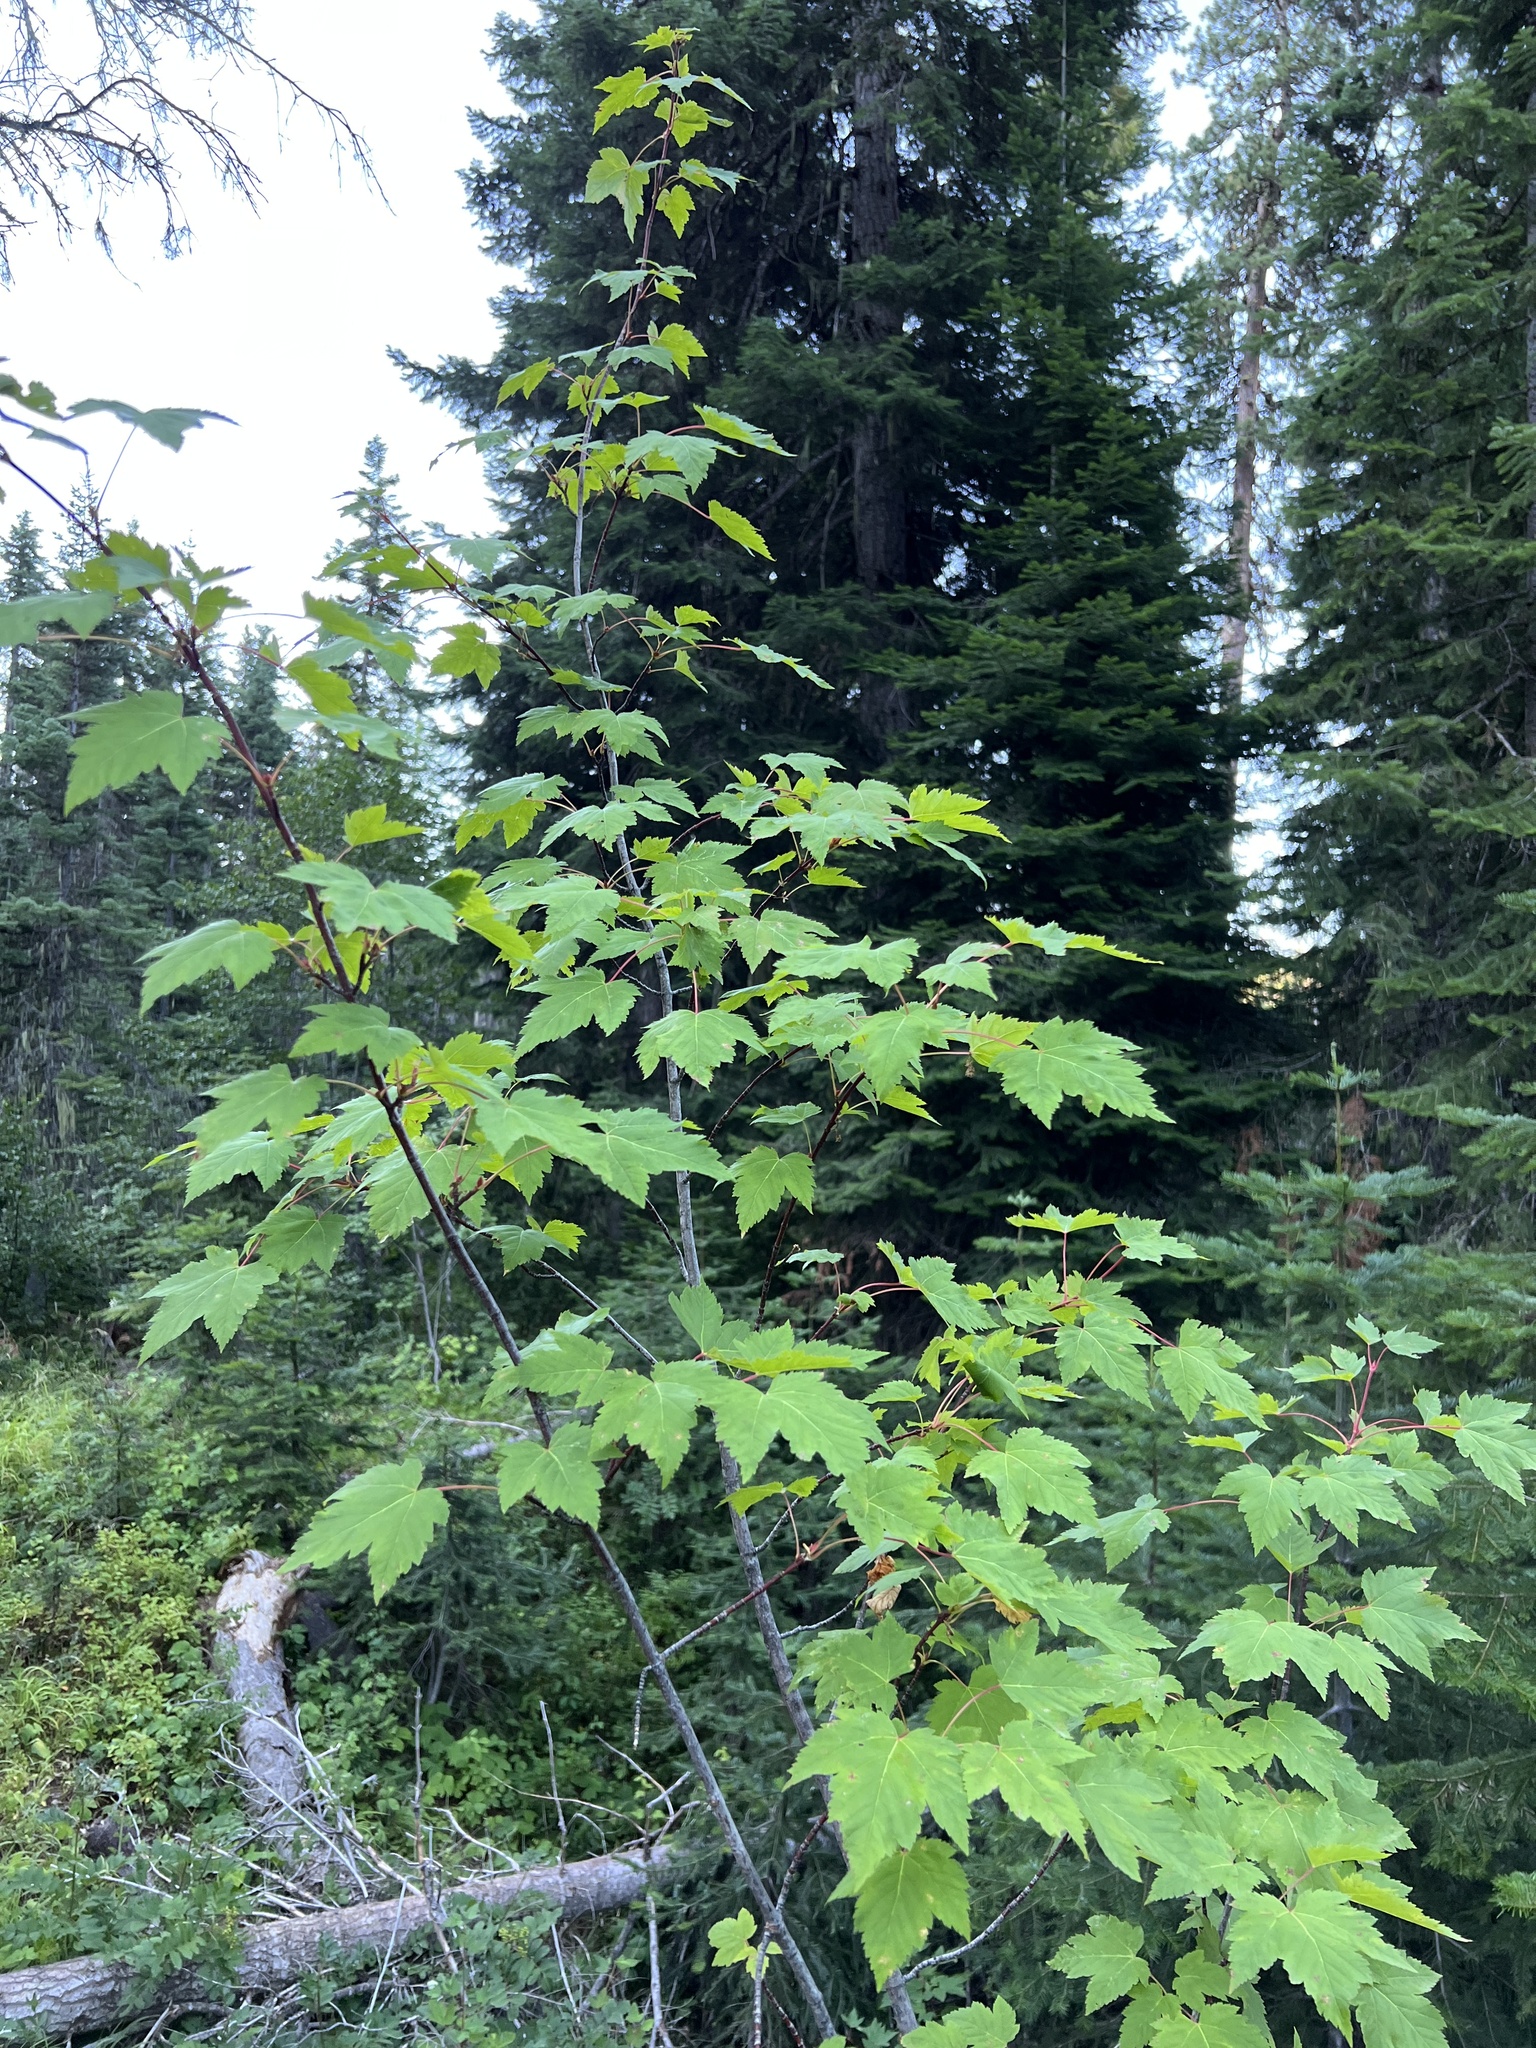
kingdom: Plantae
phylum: Tracheophyta
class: Magnoliopsida
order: Sapindales
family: Sapindaceae
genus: Acer
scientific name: Acer glabrum
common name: Rocky mountain maple
